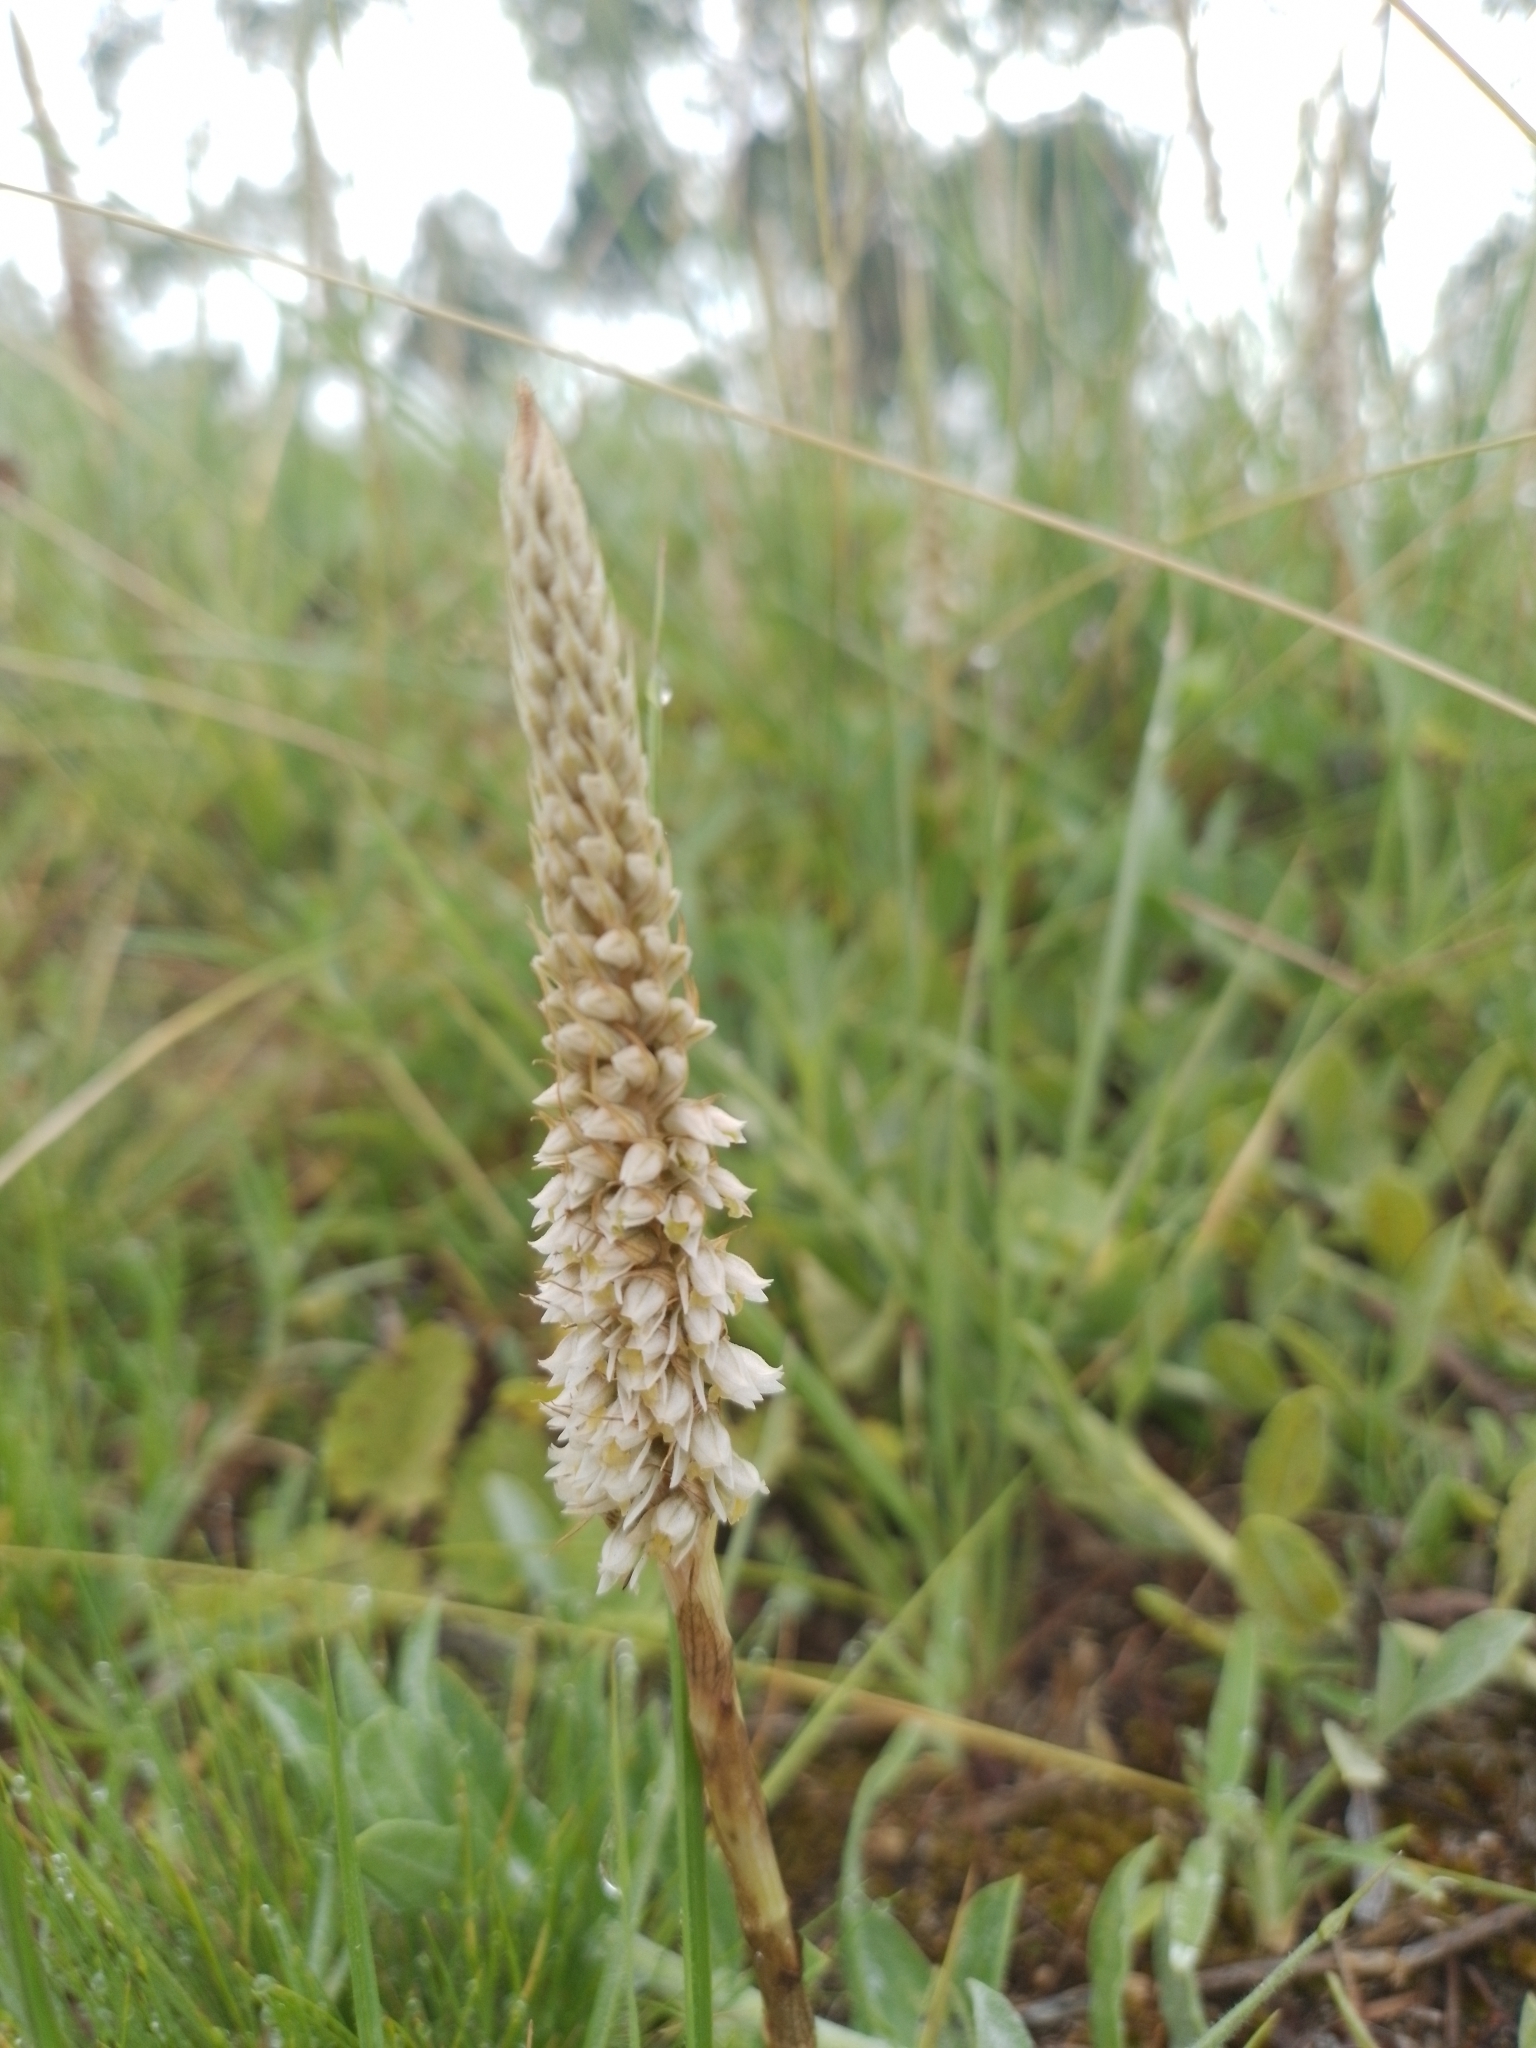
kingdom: Plantae
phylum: Tracheophyta
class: Liliopsida
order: Asparagales
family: Orchidaceae
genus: Brachystele
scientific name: Brachystele camporum
